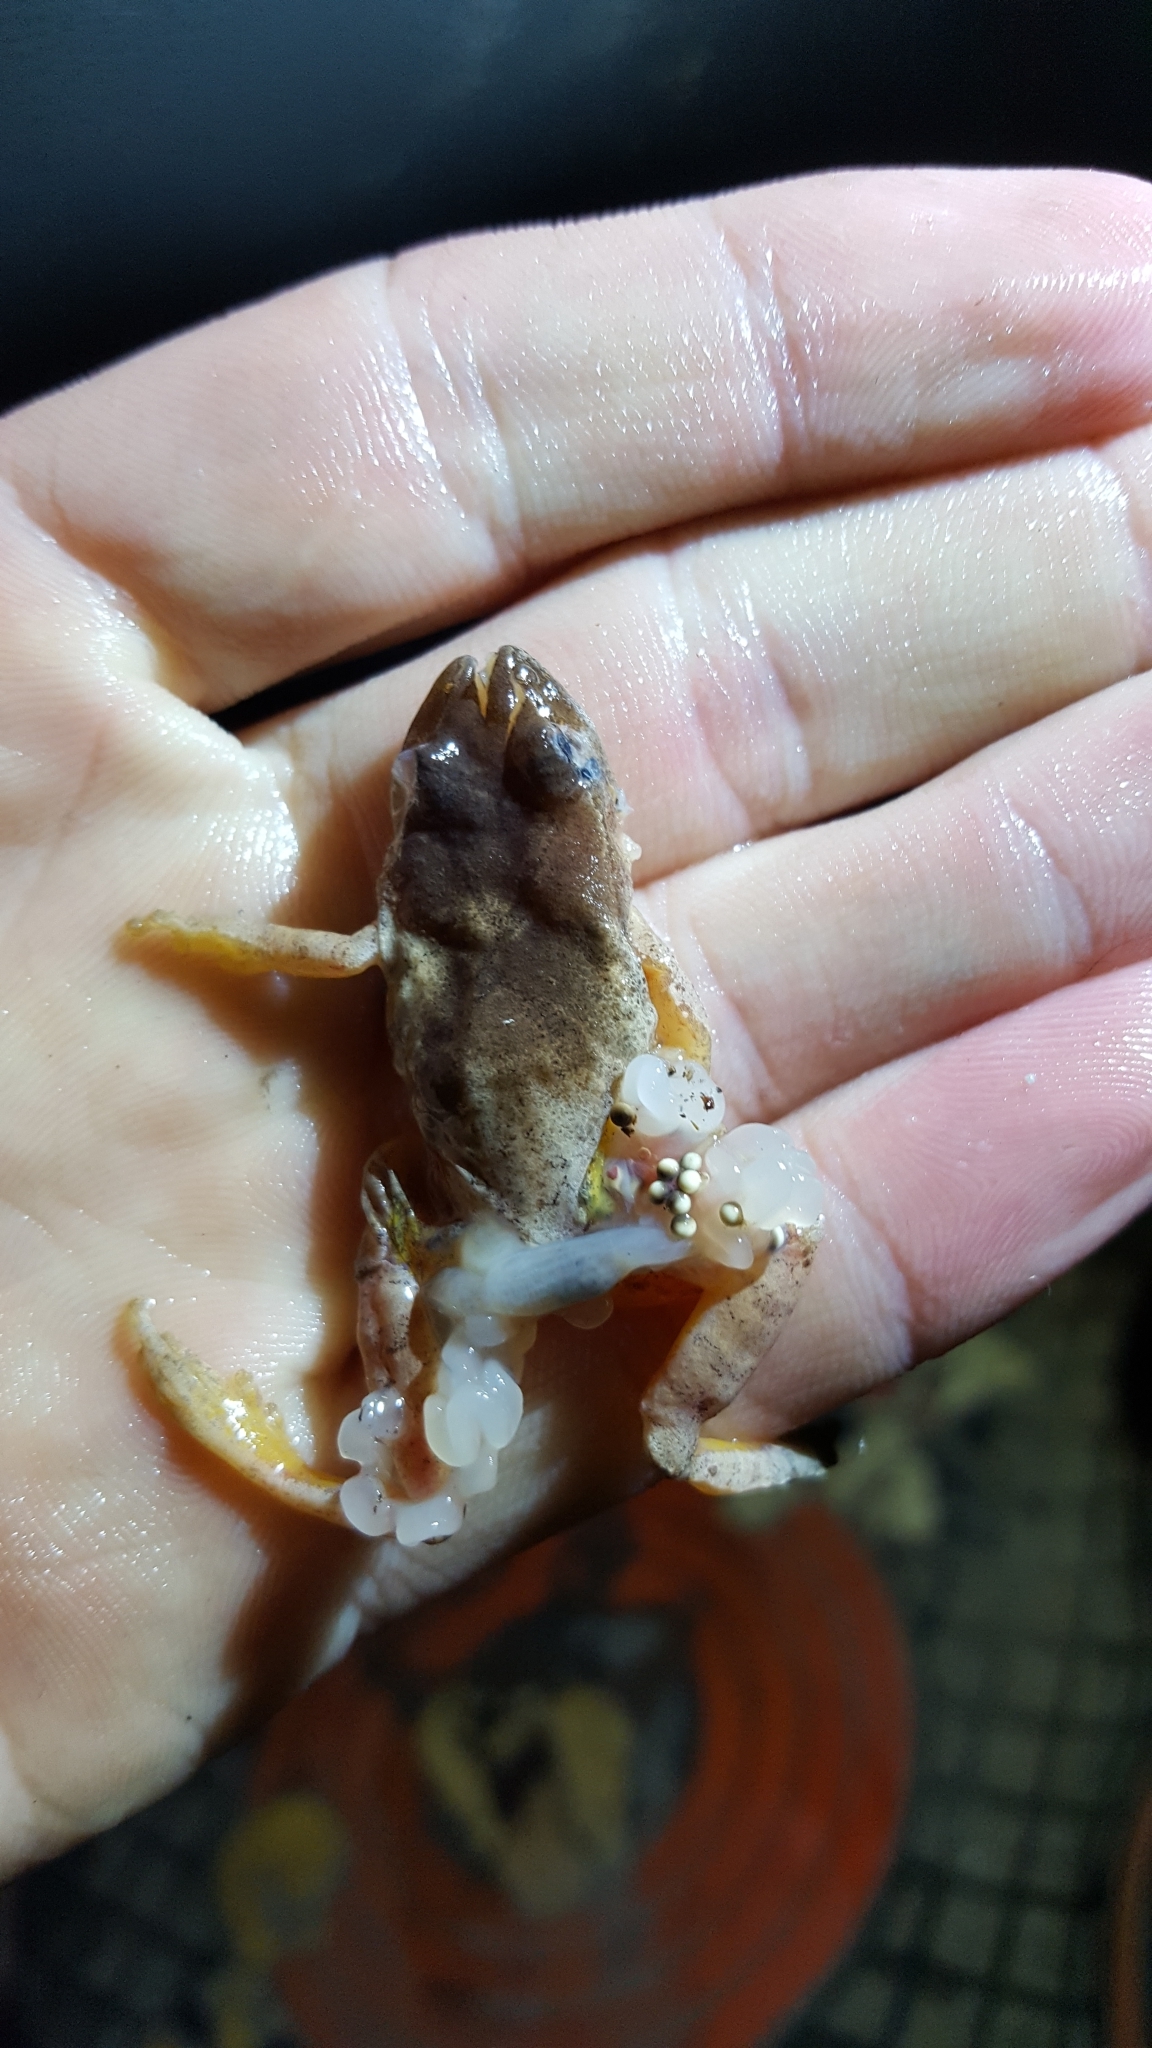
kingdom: Animalia
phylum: Chordata
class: Amphibia
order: Anura
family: Hylidae
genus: Pseudacris
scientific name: Pseudacris crucifer
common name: Spring peeper
